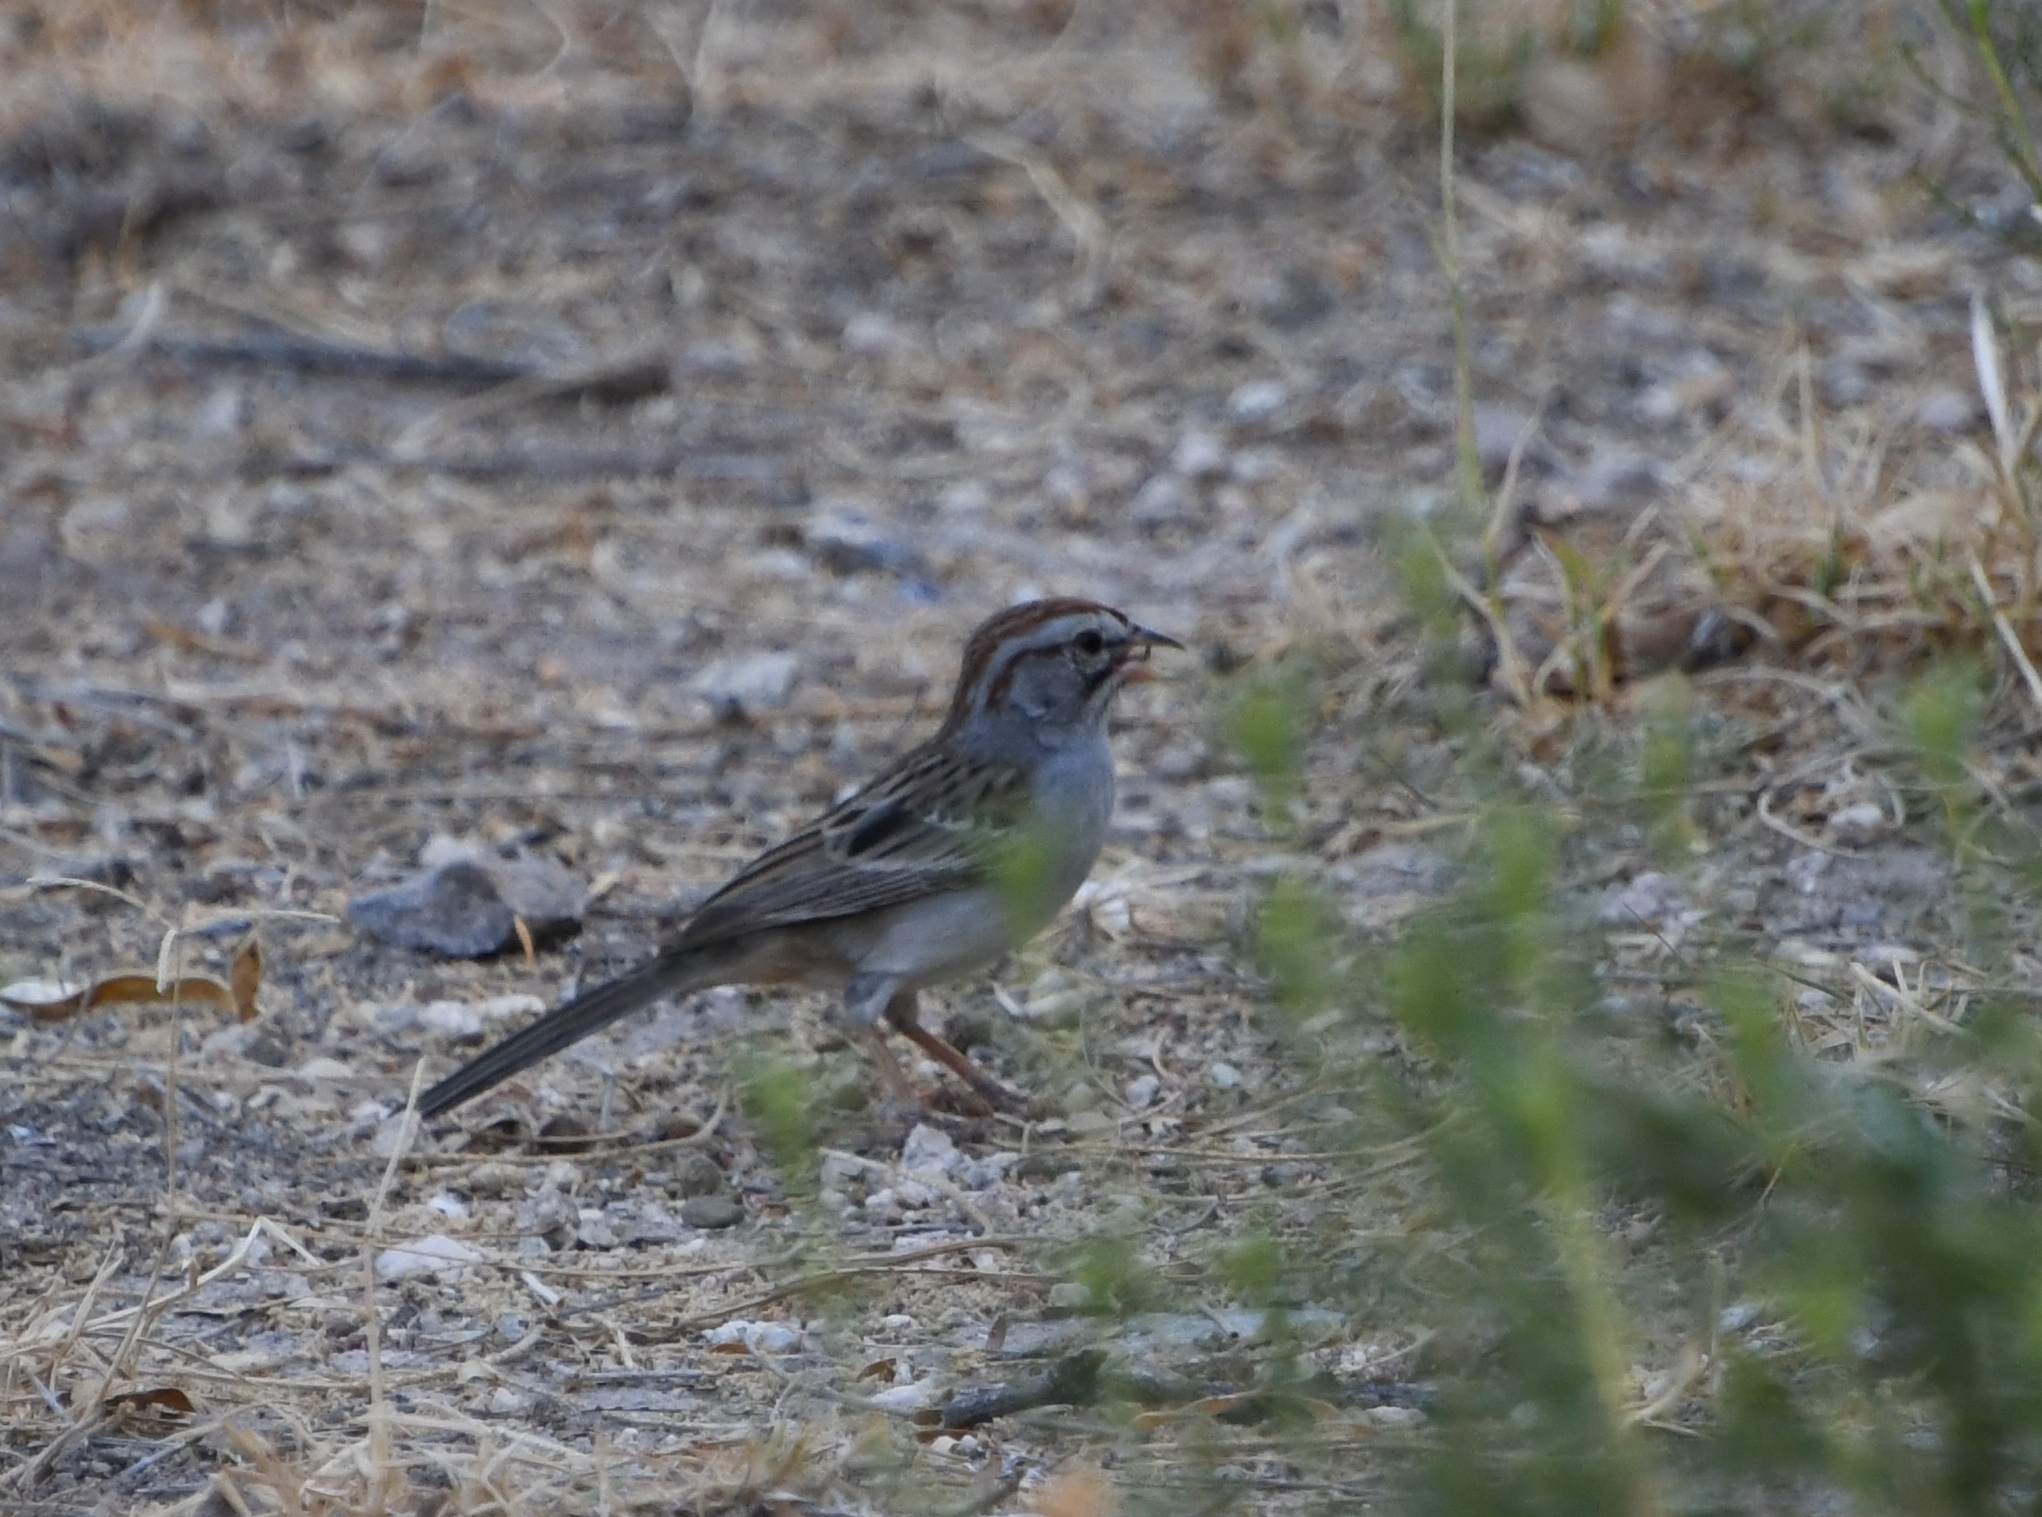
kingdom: Animalia
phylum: Chordata
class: Aves
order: Passeriformes
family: Passerellidae
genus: Peucaea
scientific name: Peucaea carpalis
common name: Rufous-winged sparrow
